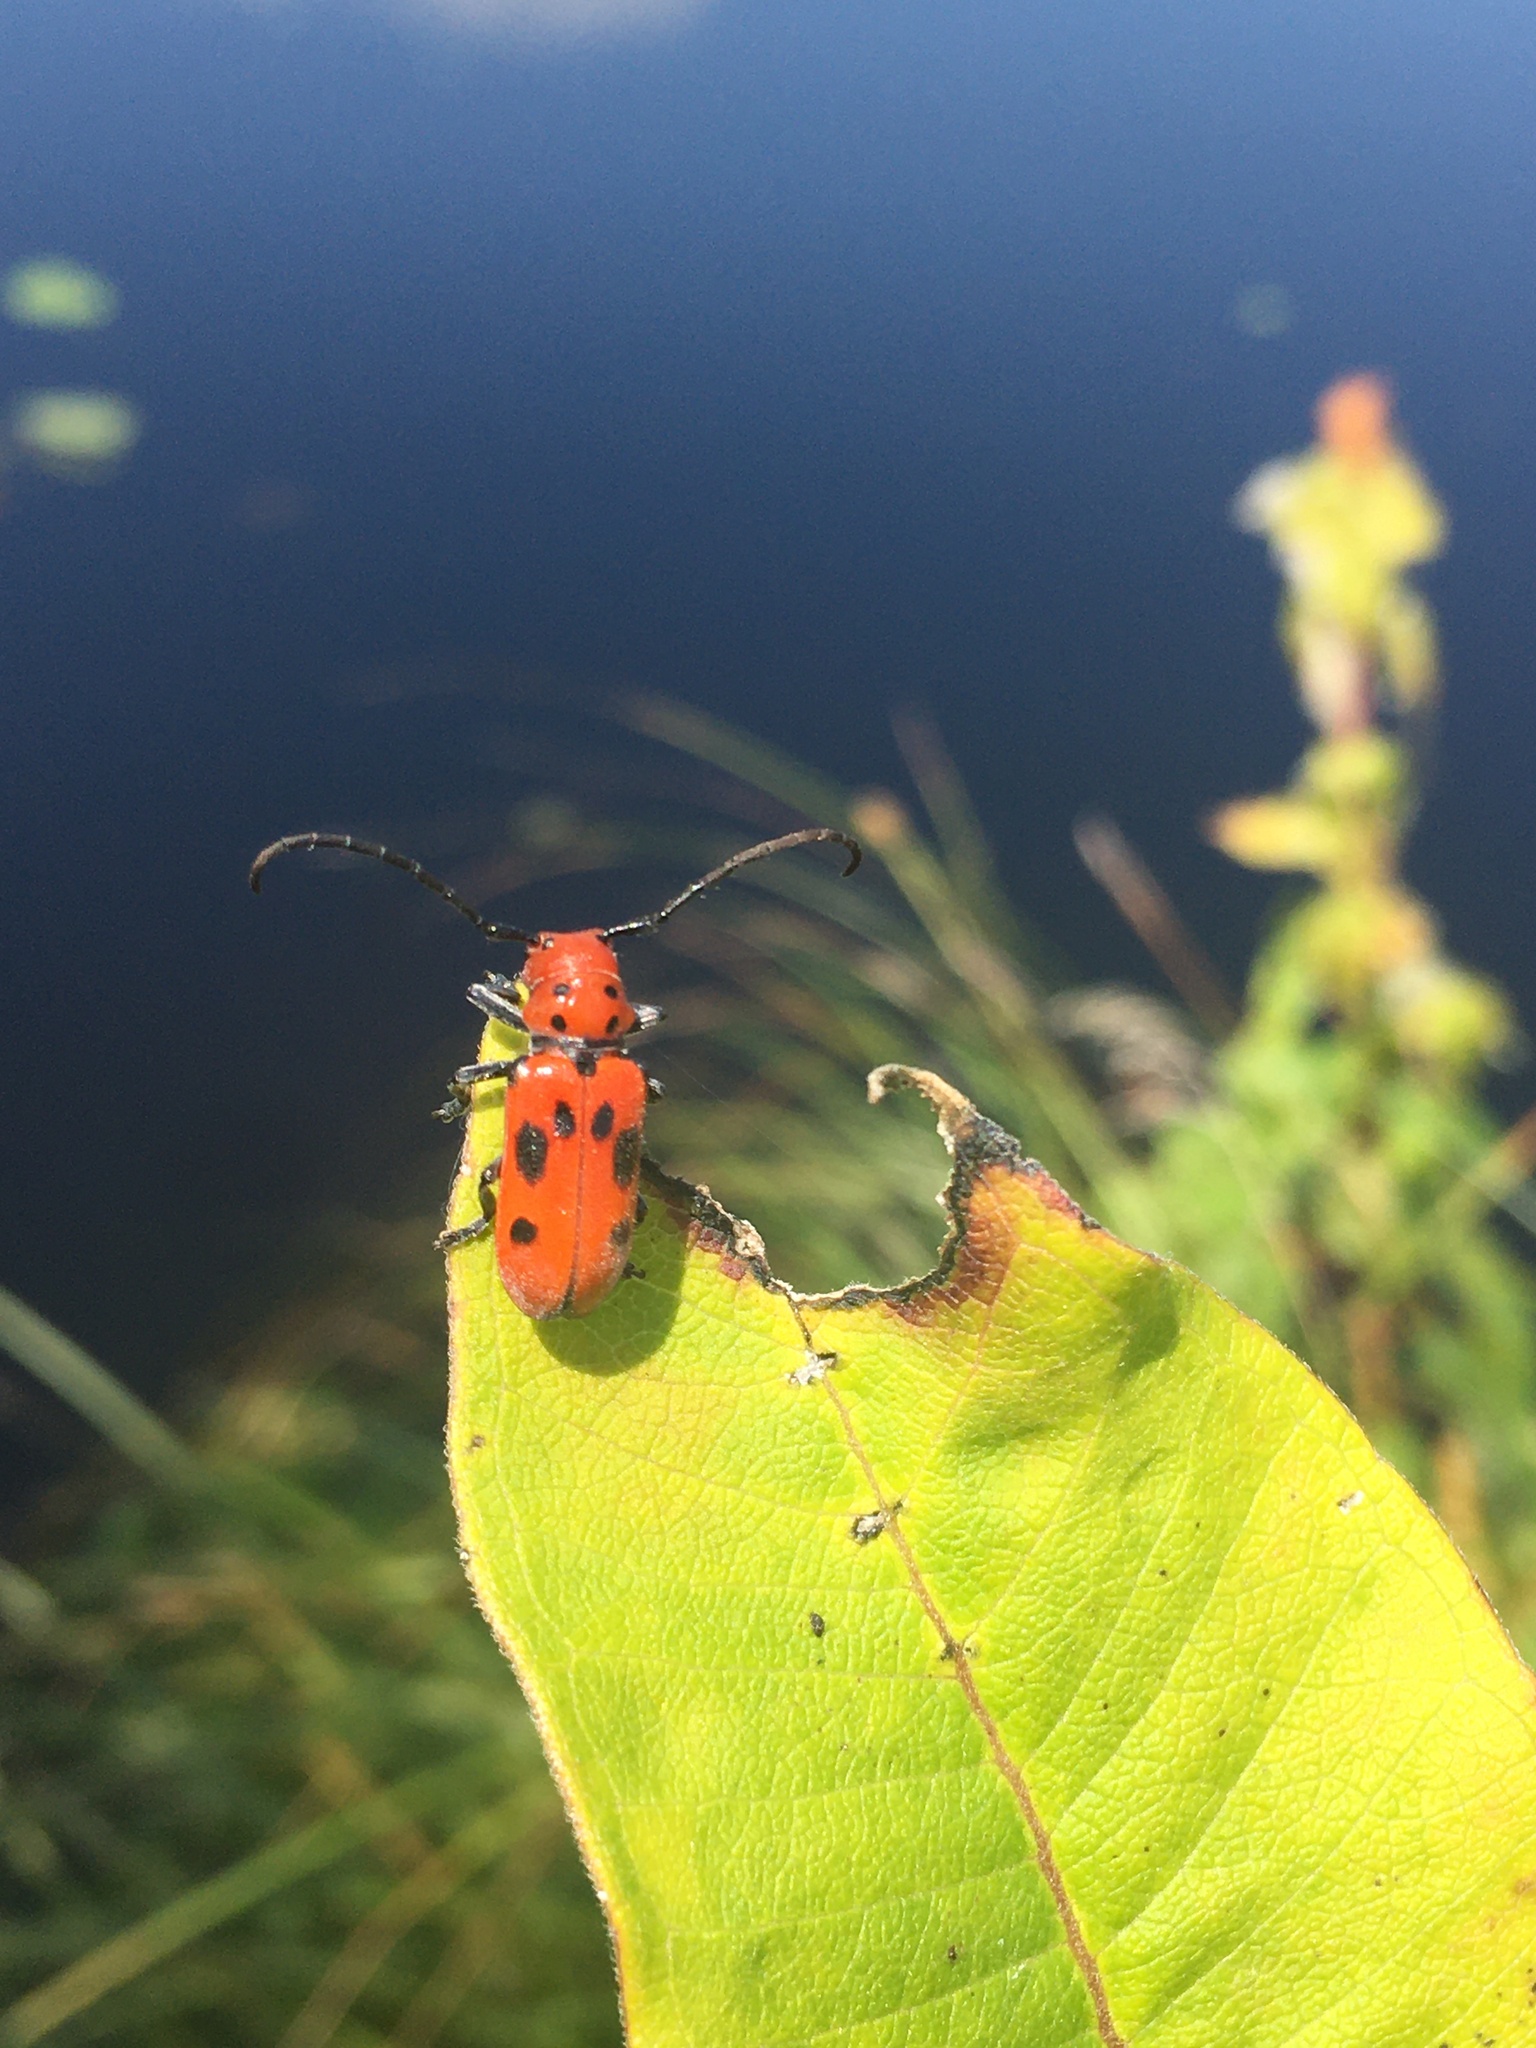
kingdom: Animalia
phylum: Arthropoda
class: Insecta
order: Coleoptera
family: Cerambycidae
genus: Tetraopes
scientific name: Tetraopes tetrophthalmus
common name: Red milkweed beetle
